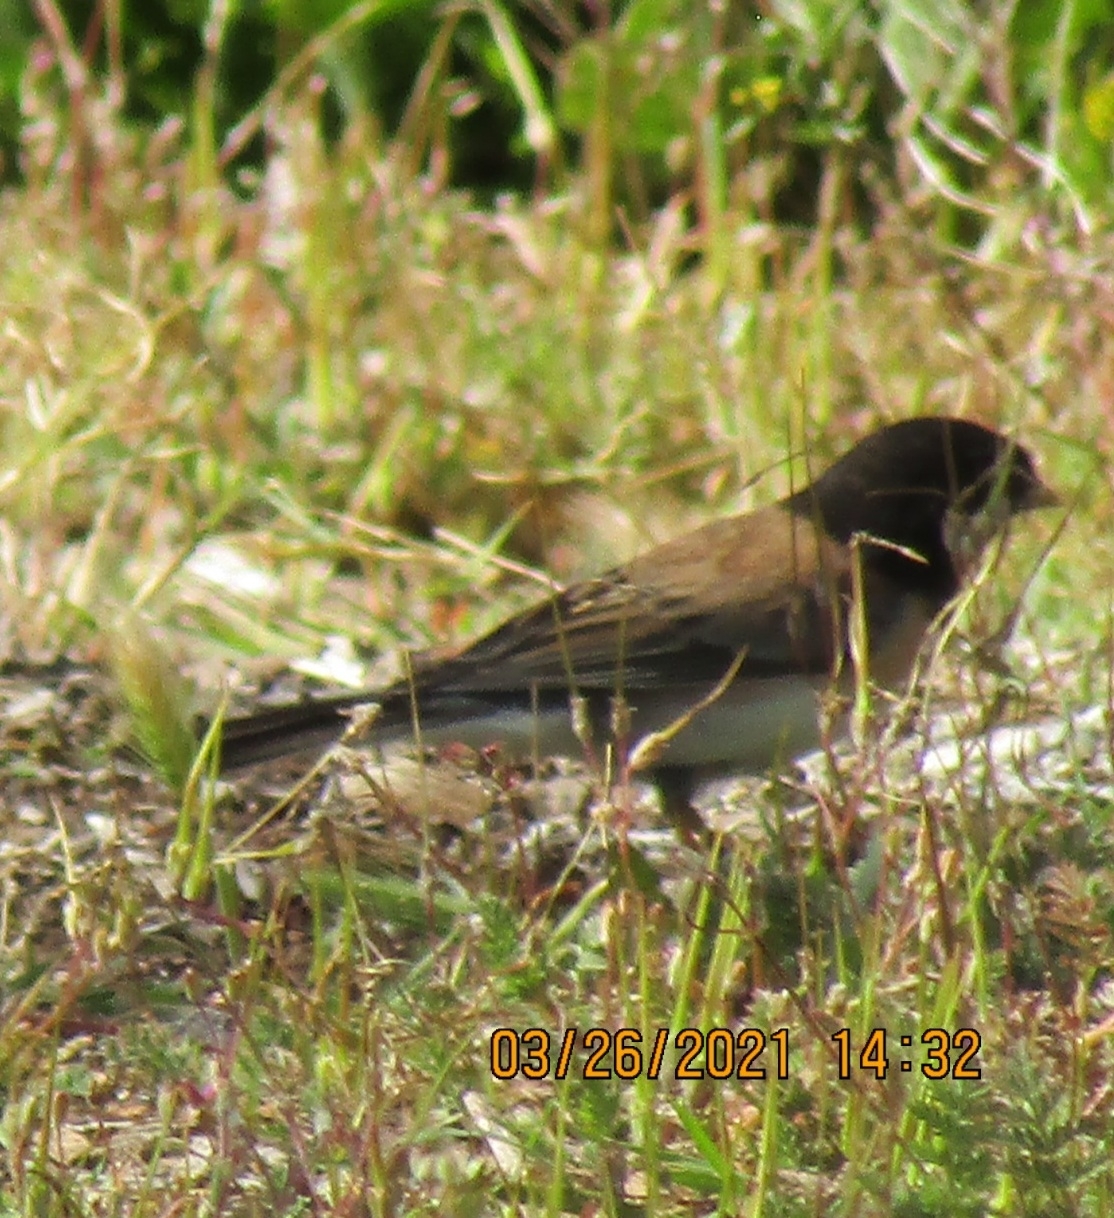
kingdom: Animalia
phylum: Chordata
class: Aves
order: Passeriformes
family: Passerellidae
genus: Junco
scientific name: Junco hyemalis
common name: Dark-eyed junco
